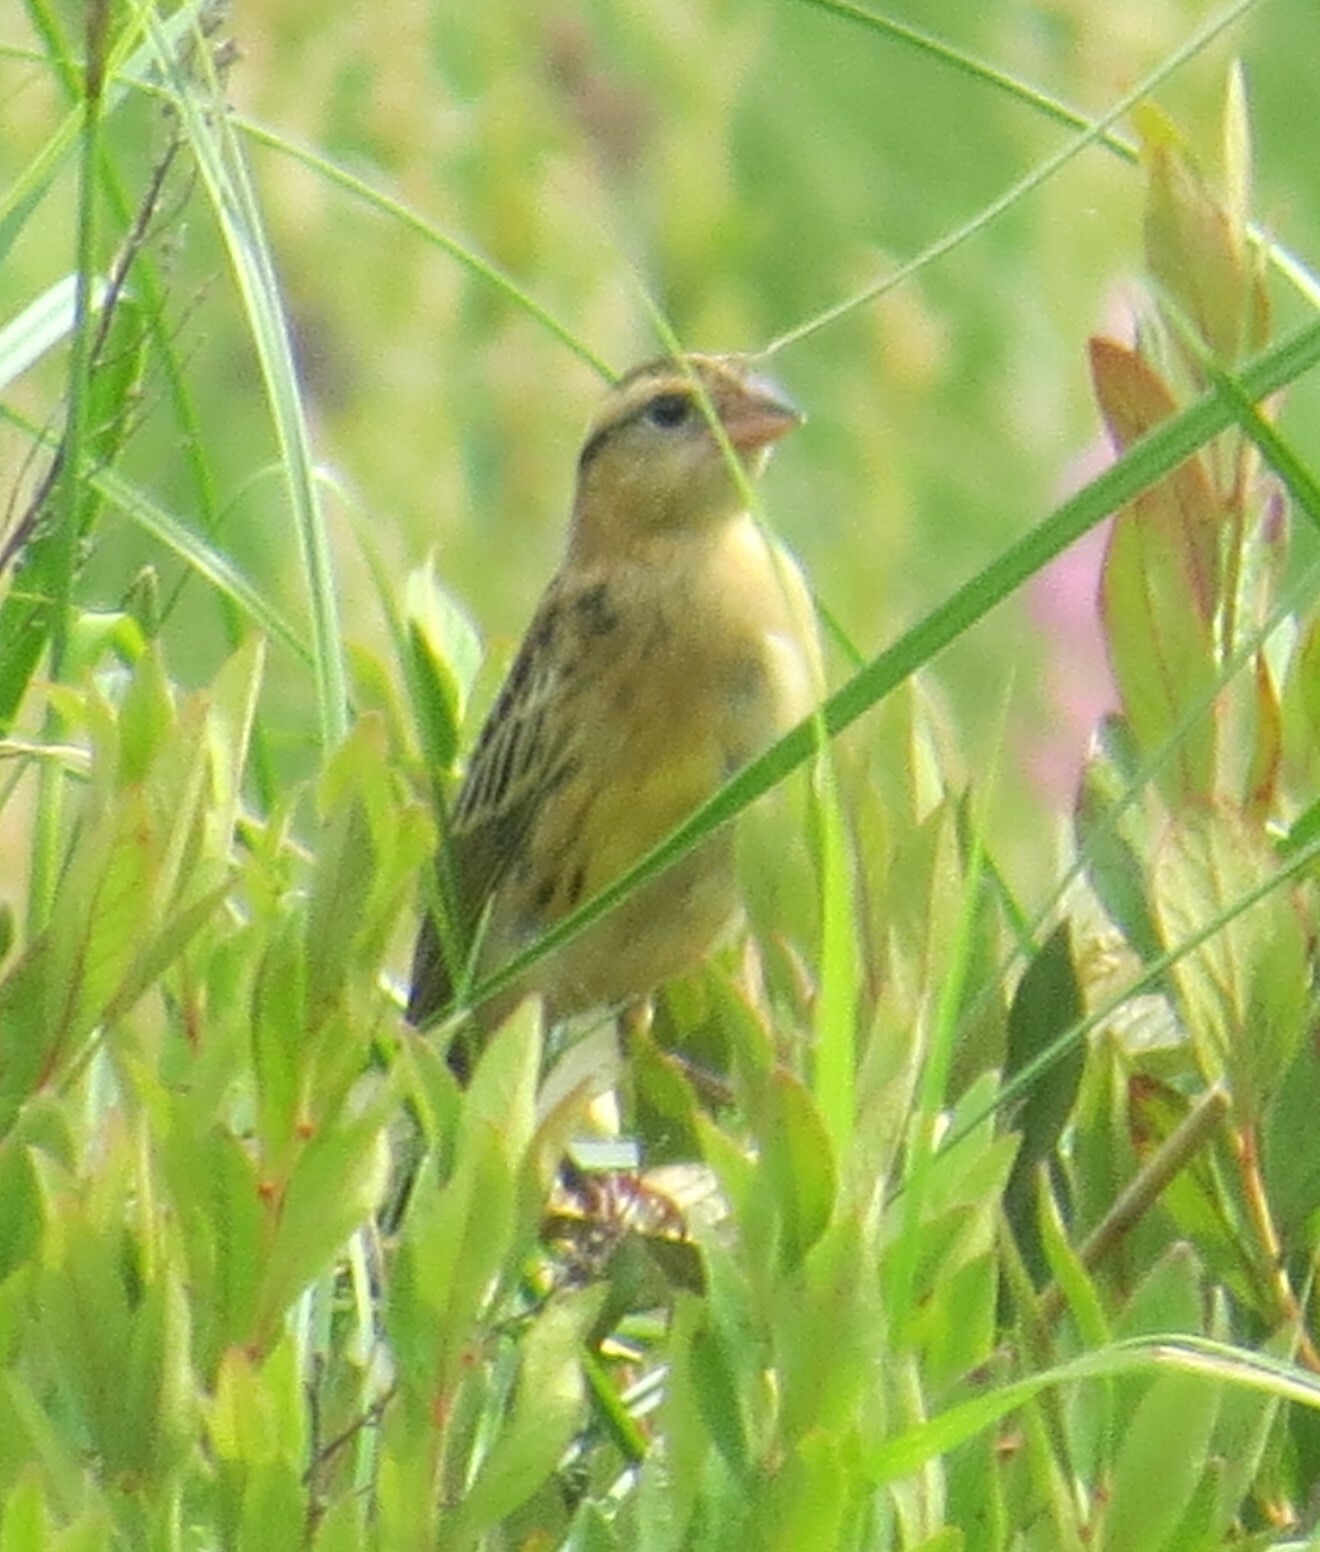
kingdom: Animalia
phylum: Chordata
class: Aves
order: Passeriformes
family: Icteridae
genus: Dolichonyx
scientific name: Dolichonyx oryzivorus
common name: Bobolink
